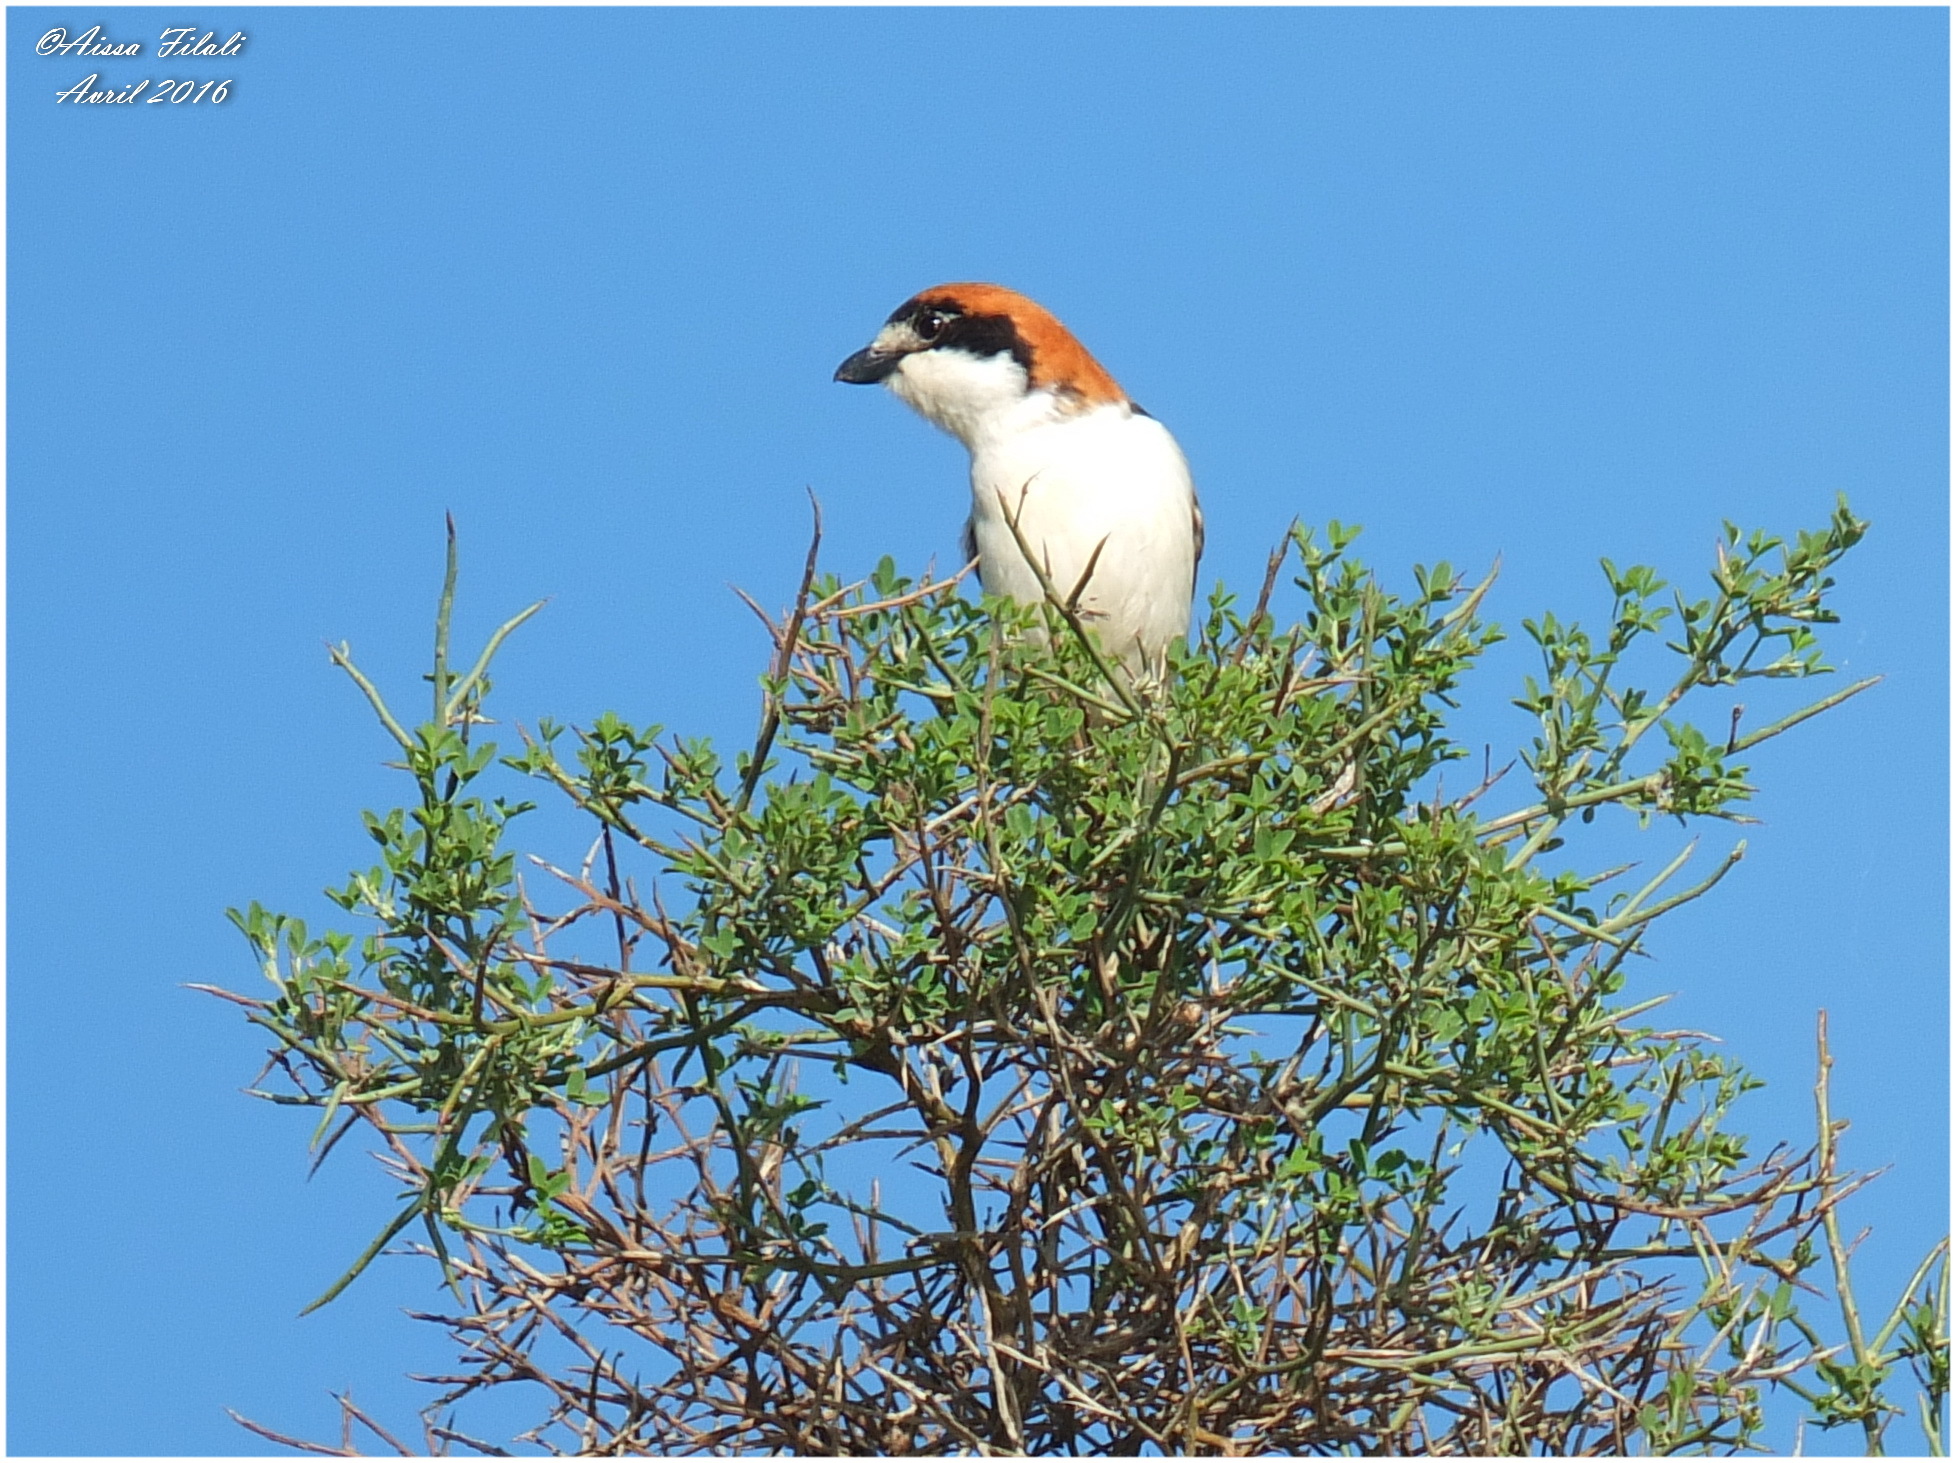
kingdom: Animalia
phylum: Chordata
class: Aves
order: Passeriformes
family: Laniidae
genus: Lanius
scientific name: Lanius senator
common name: Woodchat shrike
